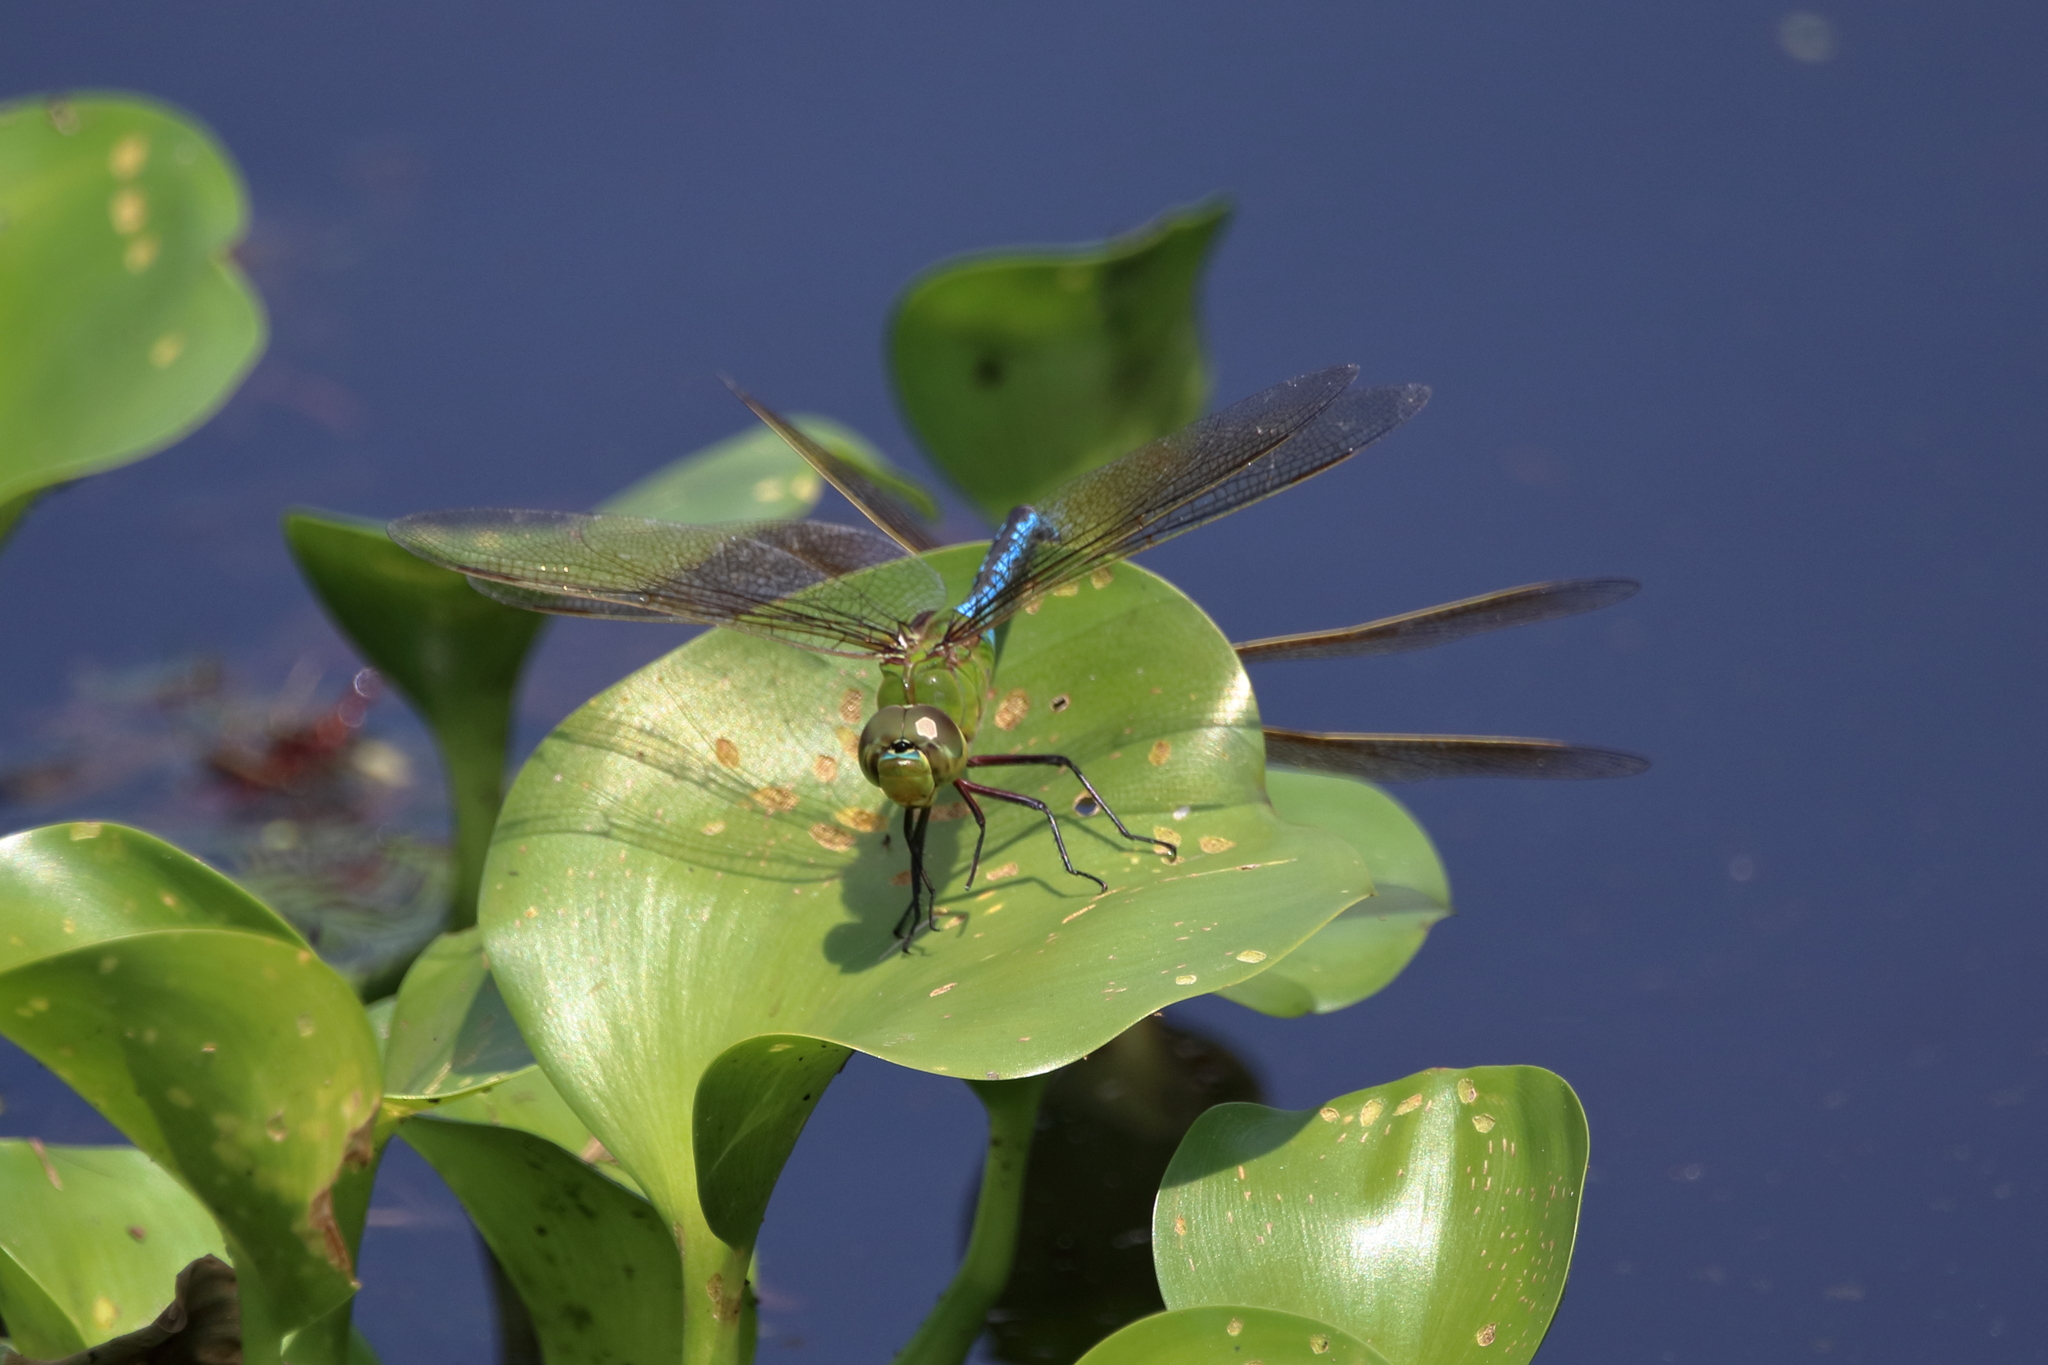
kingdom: Animalia
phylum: Arthropoda
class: Insecta
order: Odonata
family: Aeshnidae
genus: Anax
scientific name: Anax junius
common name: Common green darner
